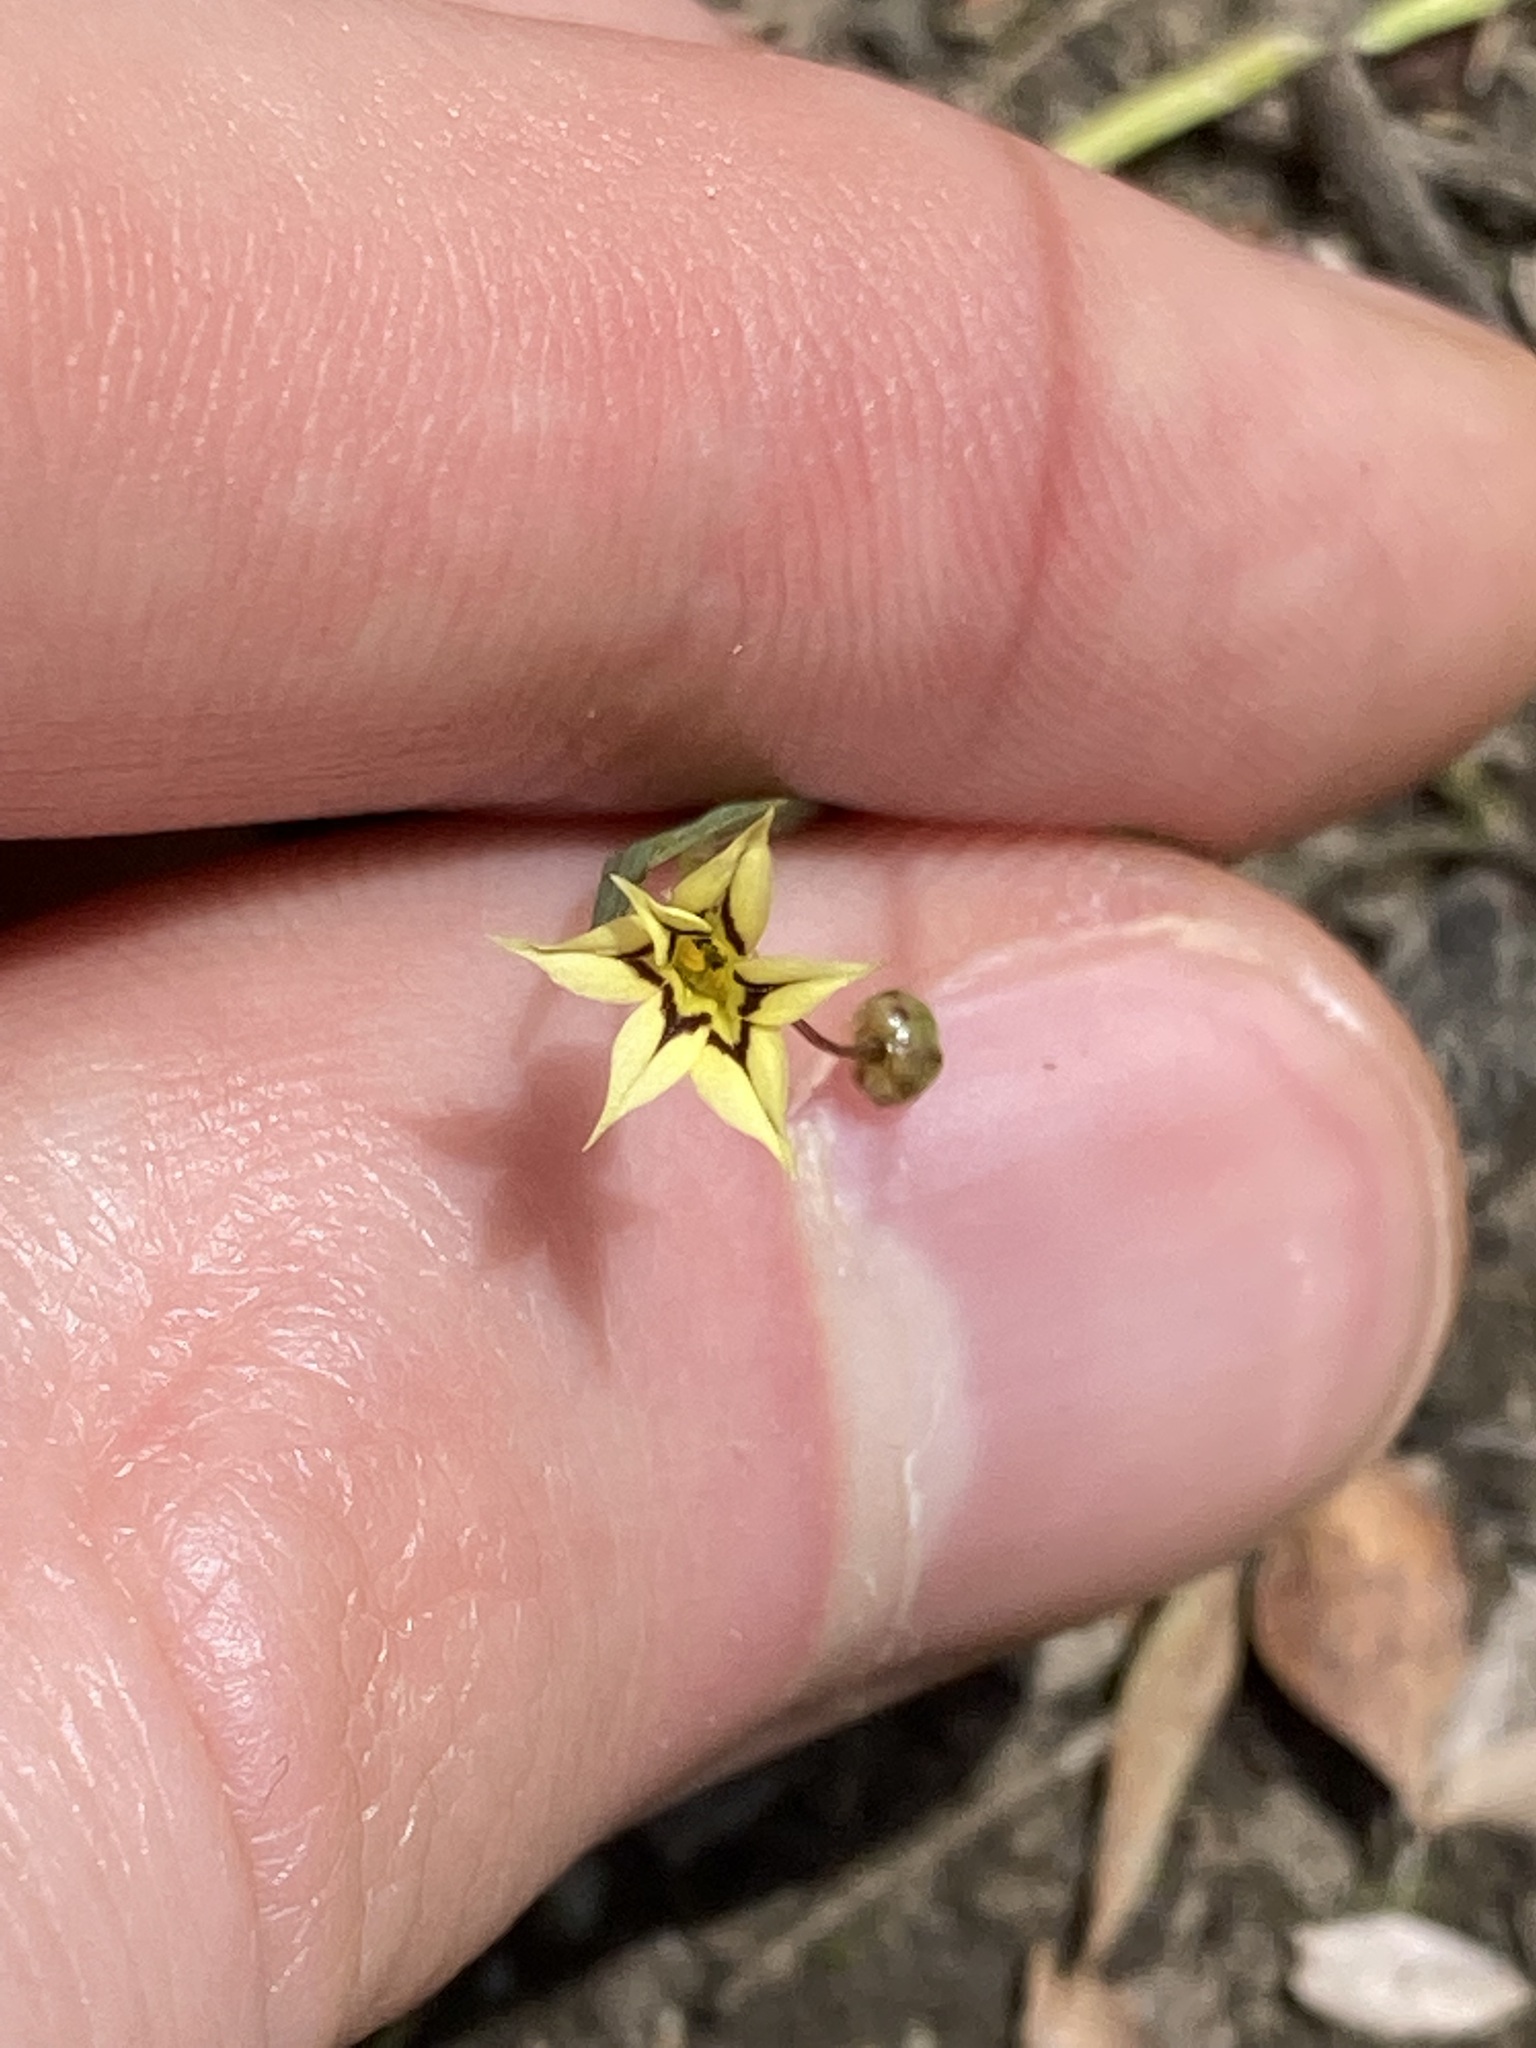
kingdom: Plantae
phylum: Tracheophyta
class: Liliopsida
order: Asparagales
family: Iridaceae
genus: Sisyrinchium
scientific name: Sisyrinchium micranthum
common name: Bermuda pigroot
